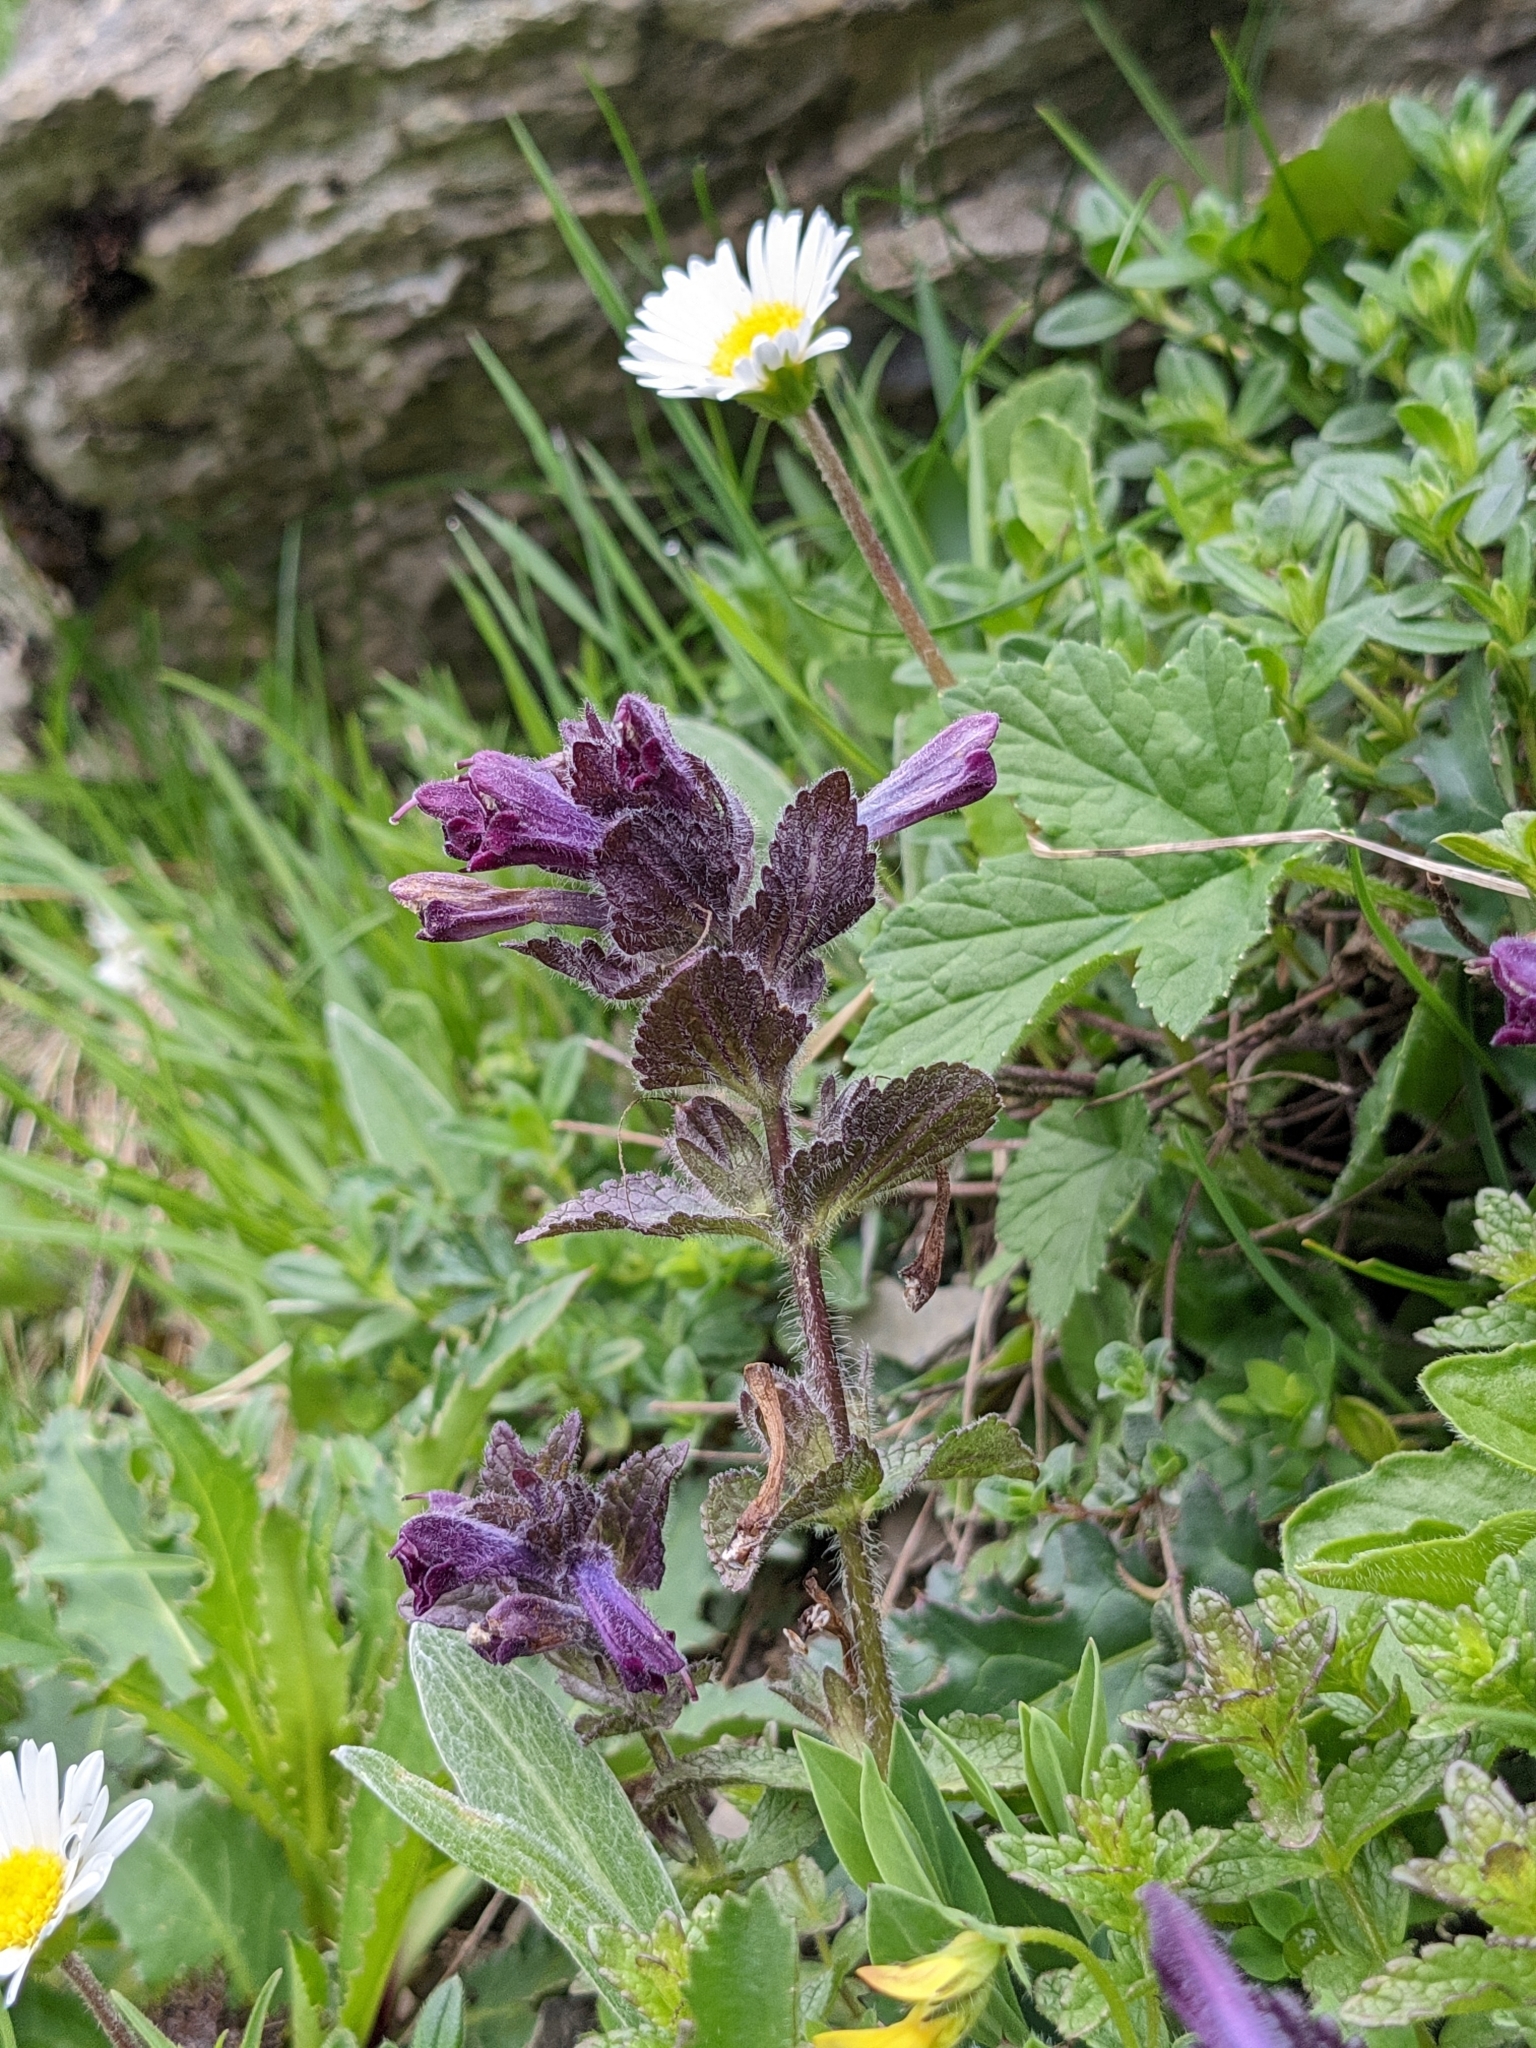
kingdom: Plantae
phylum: Tracheophyta
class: Magnoliopsida
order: Lamiales
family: Orobanchaceae
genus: Bartsia
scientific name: Bartsia alpina
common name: Alpine bartsia
